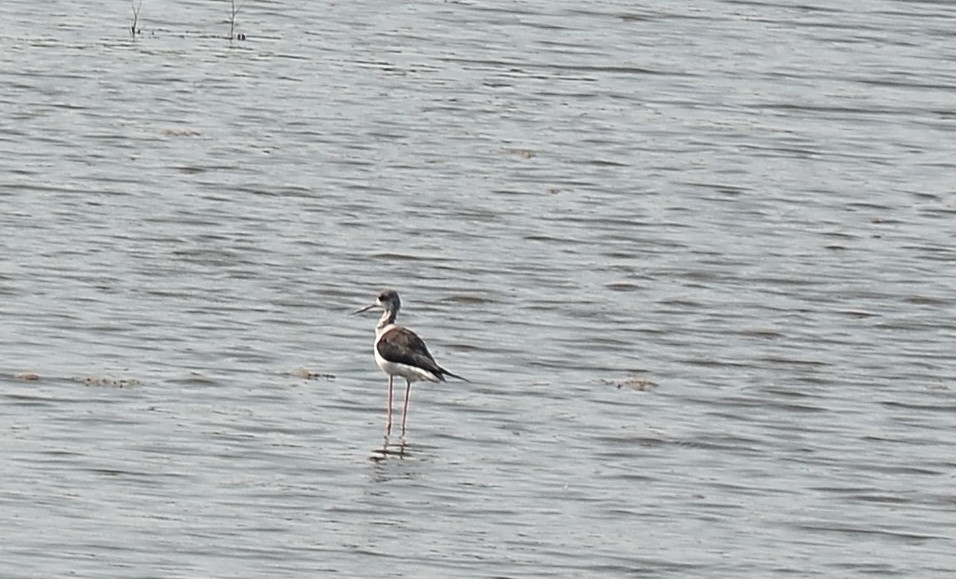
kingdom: Animalia
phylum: Chordata
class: Aves
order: Charadriiformes
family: Recurvirostridae
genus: Himantopus
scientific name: Himantopus himantopus
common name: Black-winged stilt
